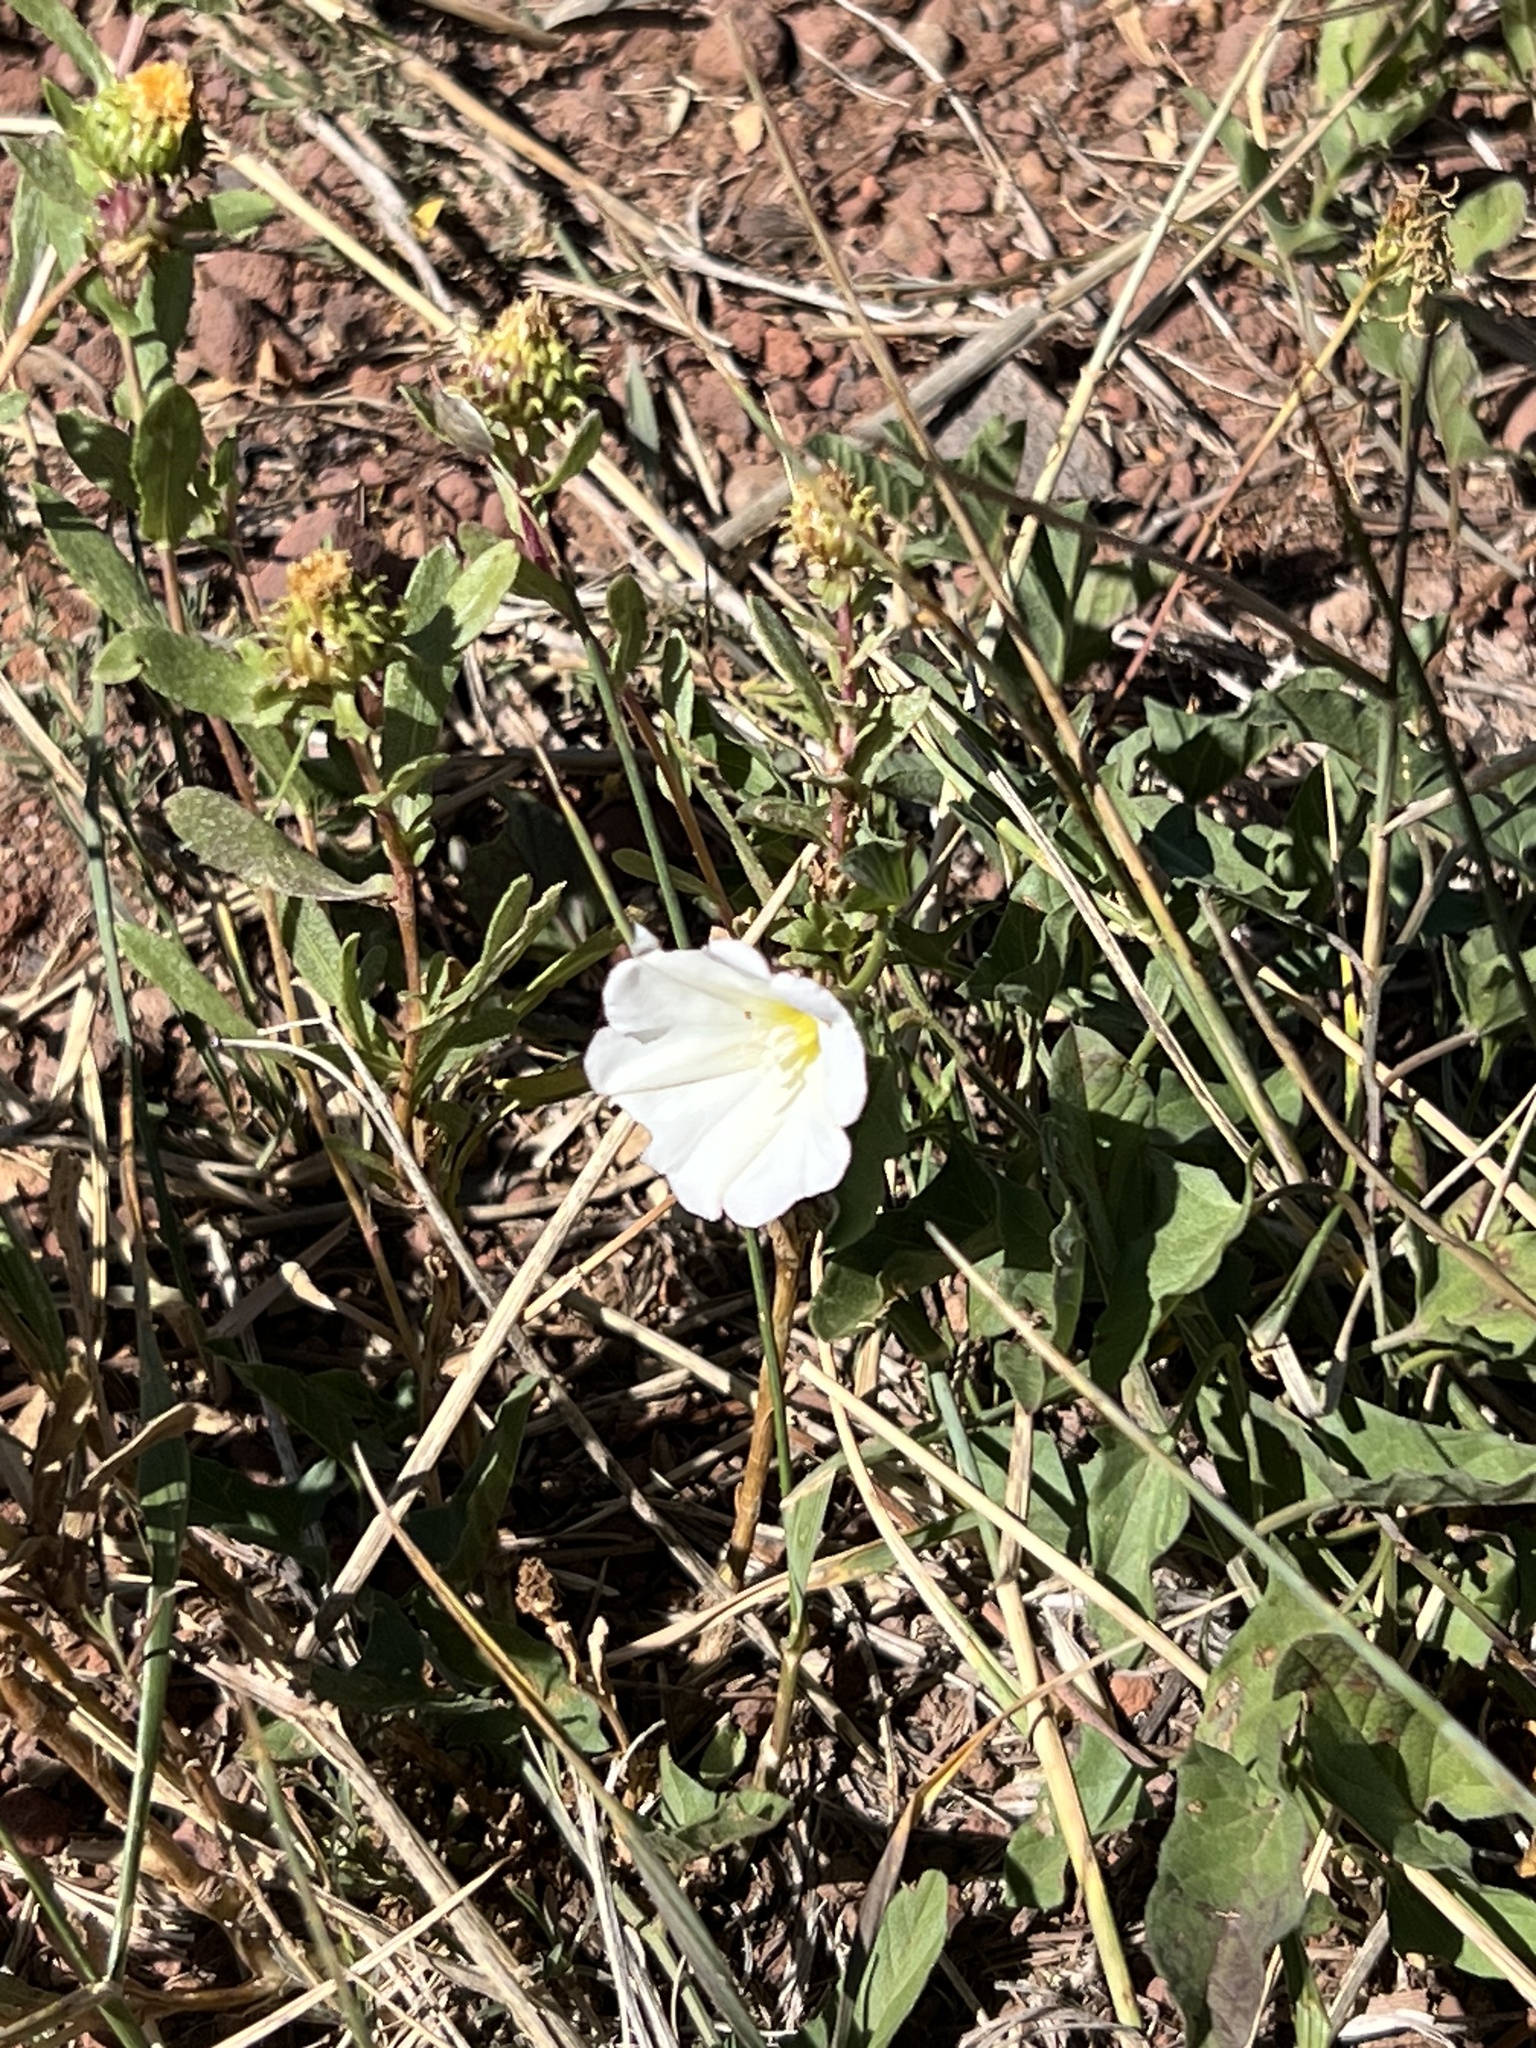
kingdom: Plantae
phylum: Tracheophyta
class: Magnoliopsida
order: Solanales
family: Convolvulaceae
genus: Convolvulus
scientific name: Convolvulus arvensis
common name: Field bindweed
